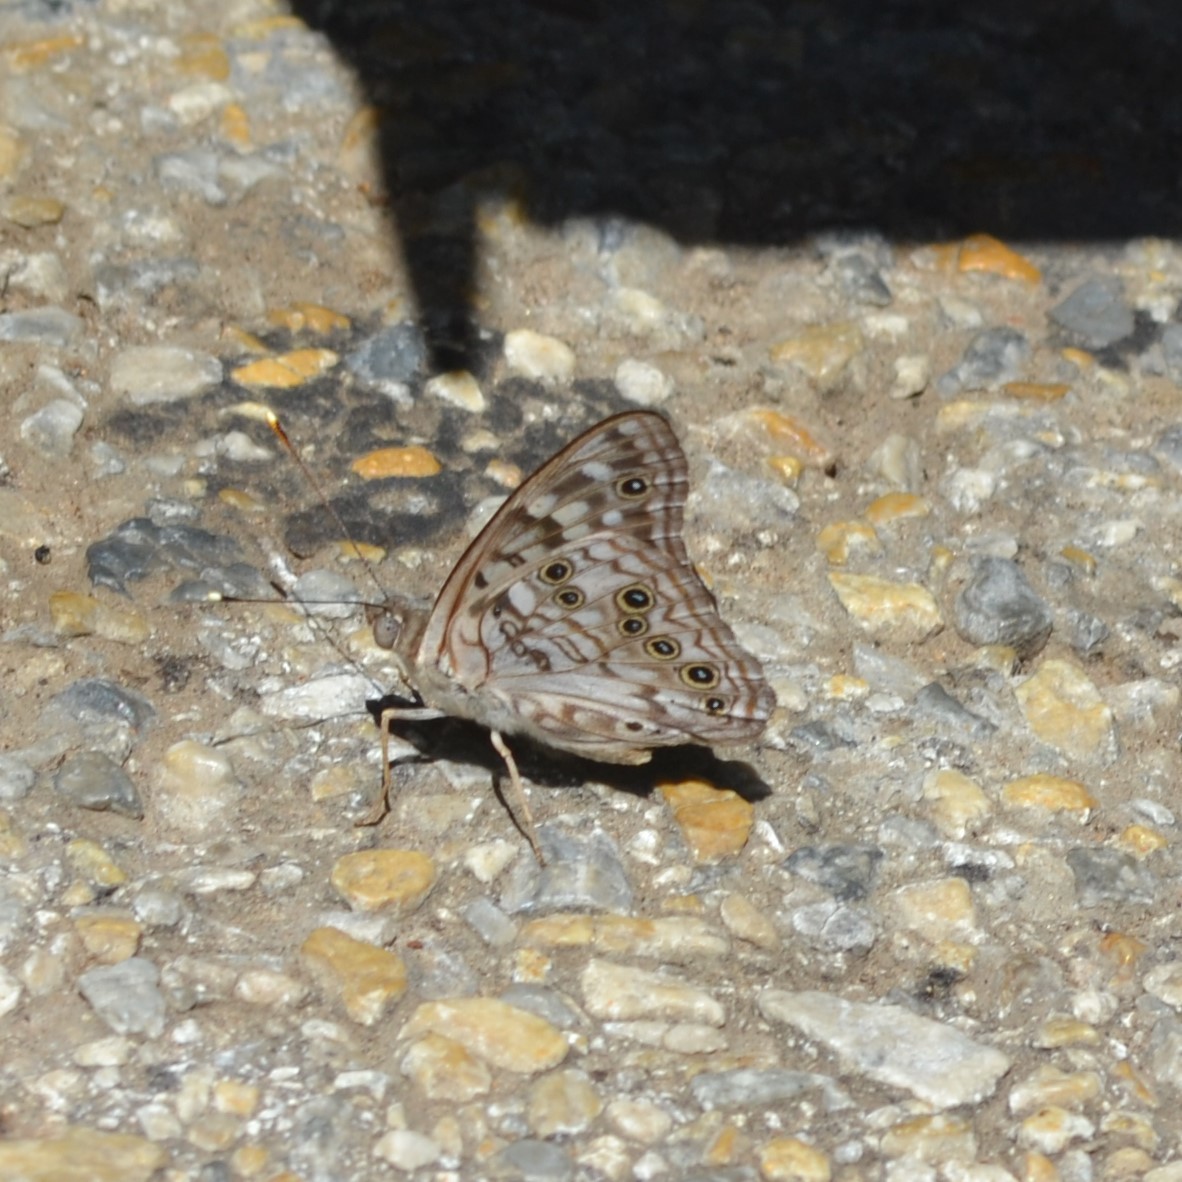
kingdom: Animalia
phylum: Arthropoda
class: Insecta
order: Lepidoptera
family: Nymphalidae
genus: Asterocampa
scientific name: Asterocampa celtis
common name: Hackberry emperor
